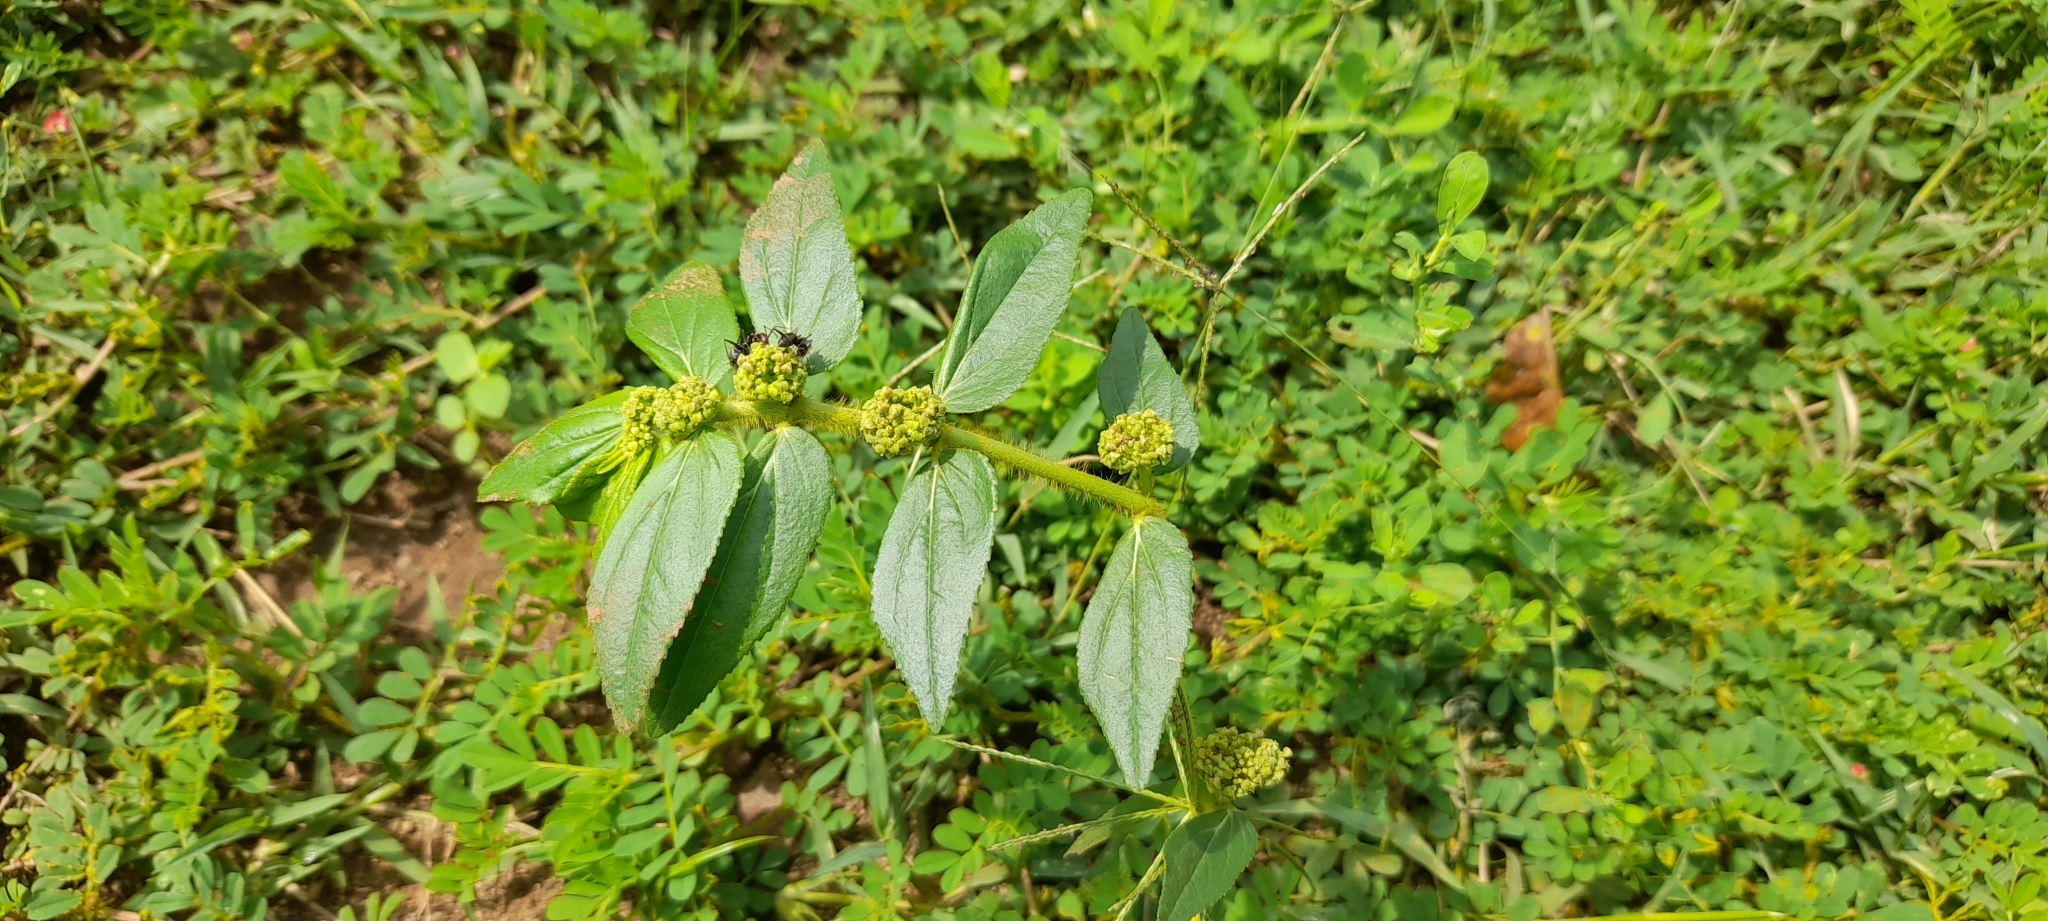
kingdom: Plantae
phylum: Tracheophyta
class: Magnoliopsida
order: Malpighiales
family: Euphorbiaceae
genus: Euphorbia
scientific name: Euphorbia hirta
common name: Pillpod sandmat
